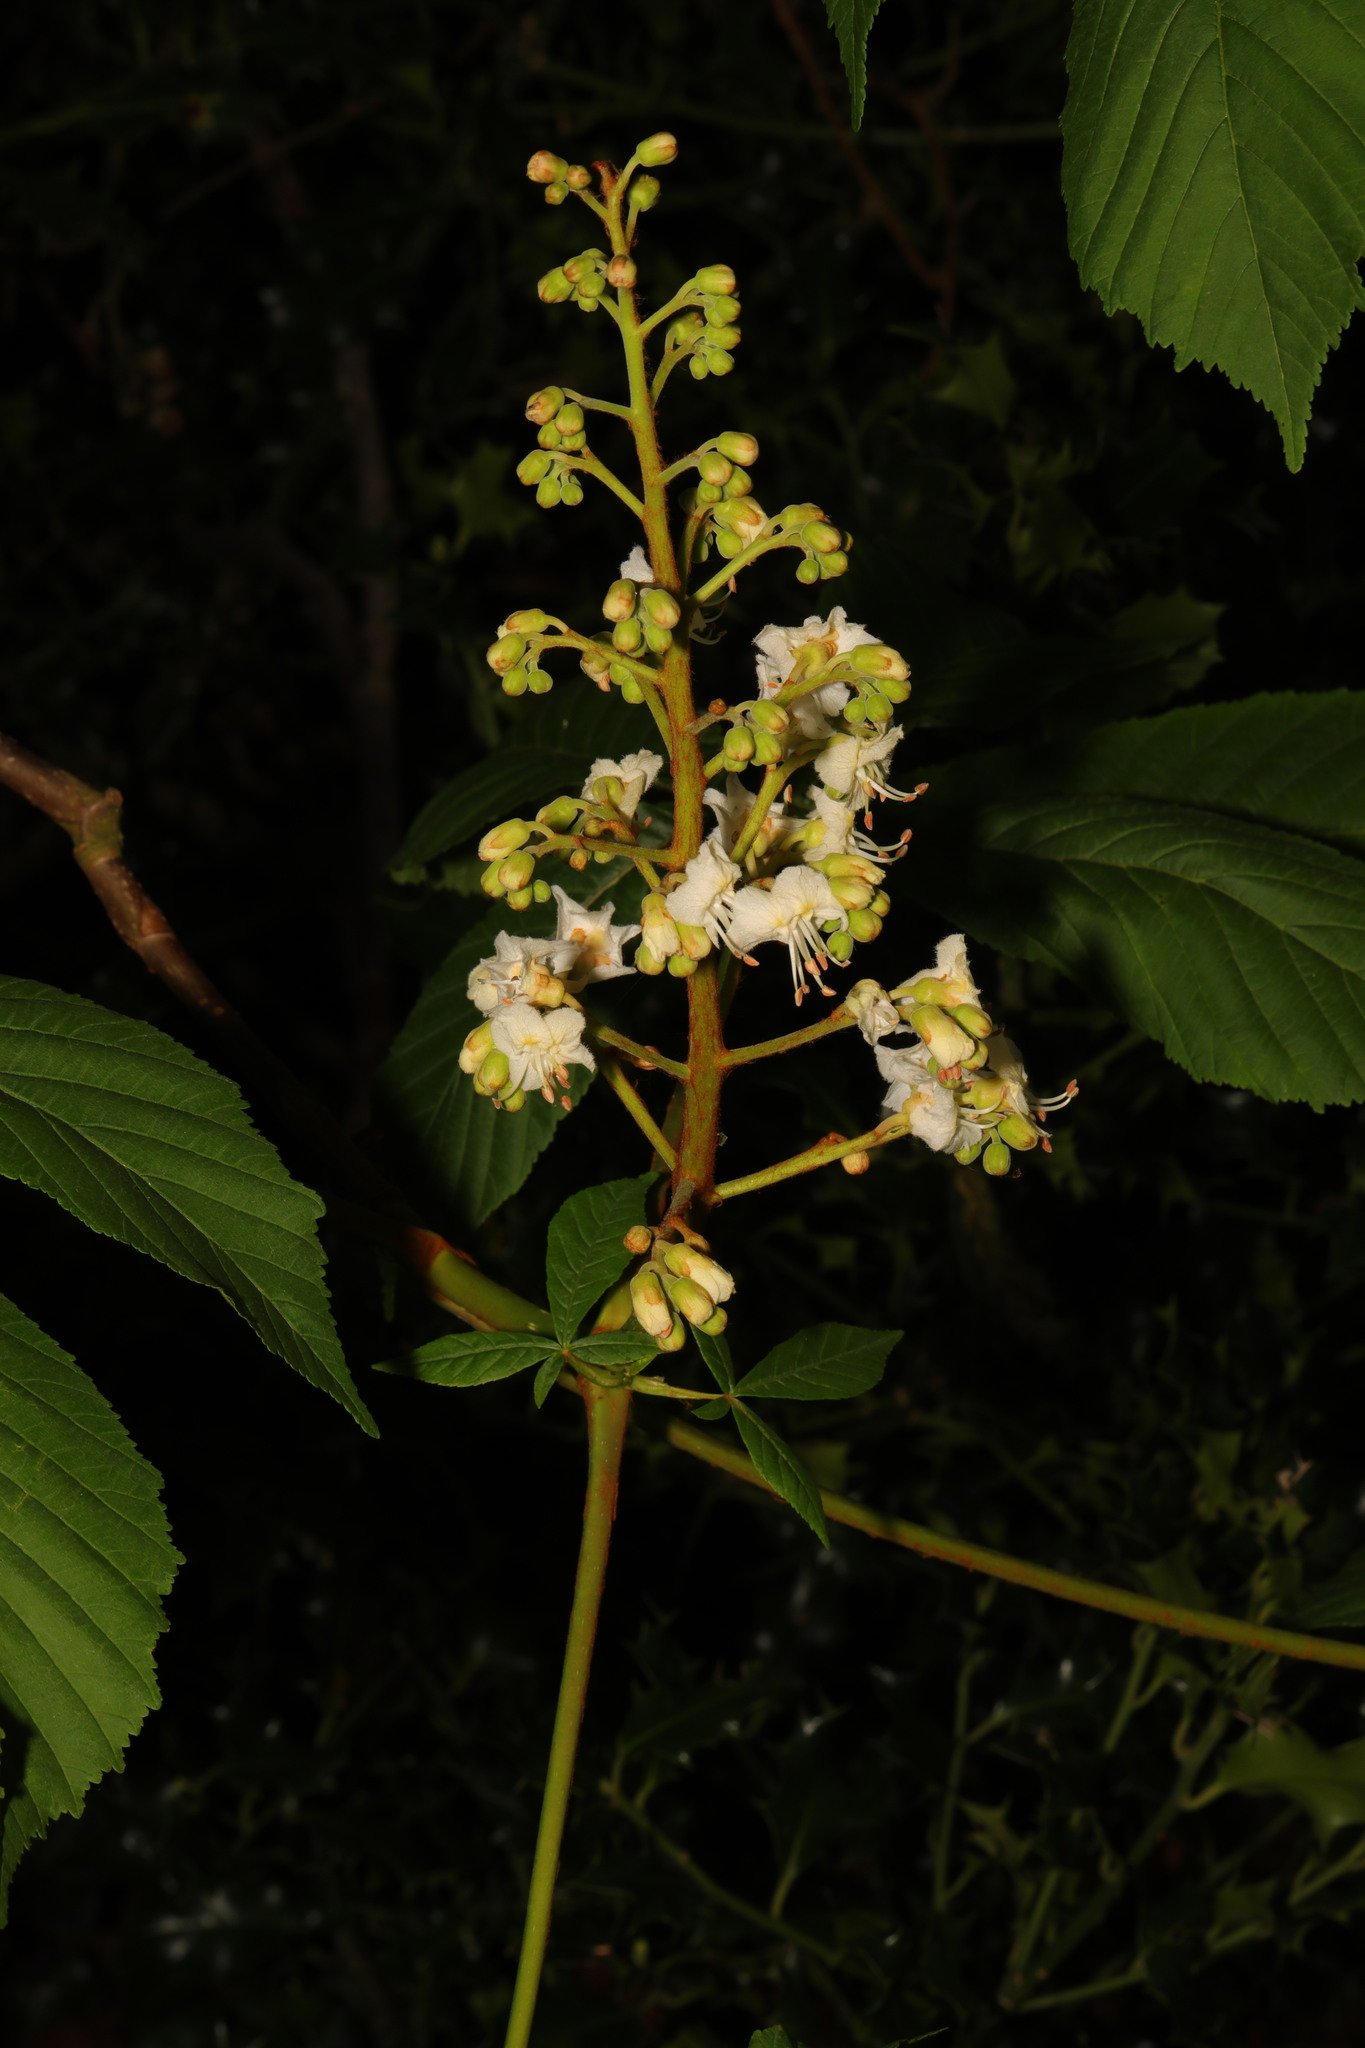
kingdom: Plantae
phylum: Tracheophyta
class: Magnoliopsida
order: Sapindales
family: Sapindaceae
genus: Aesculus
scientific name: Aesculus hippocastanum
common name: Horse-chestnut
